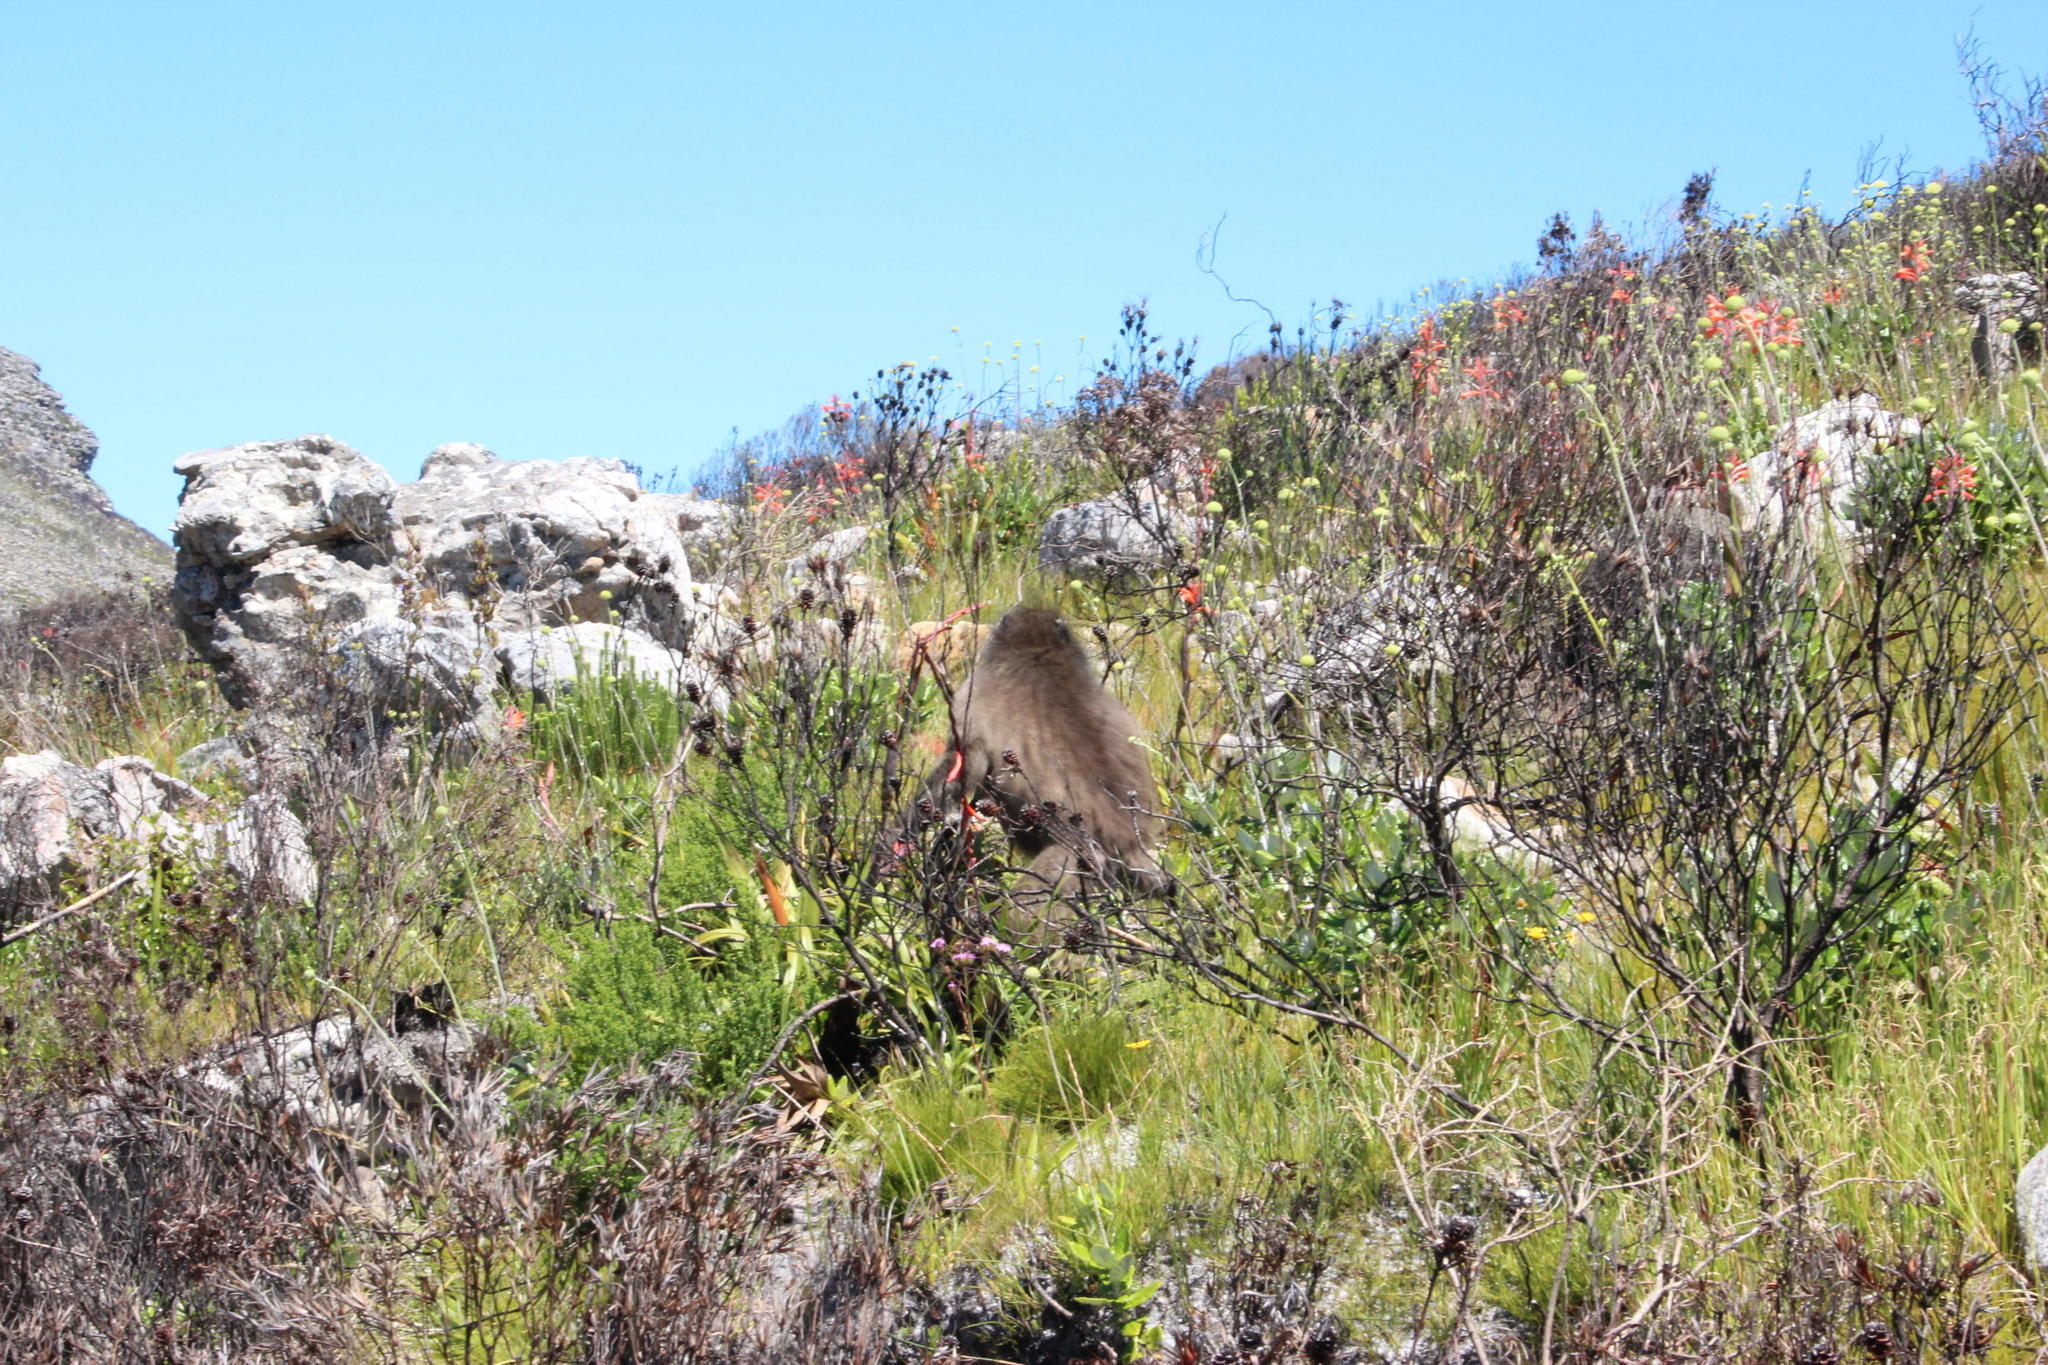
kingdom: Plantae
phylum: Tracheophyta
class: Liliopsida
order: Asparagales
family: Iridaceae
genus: Watsonia
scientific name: Watsonia tabularis
